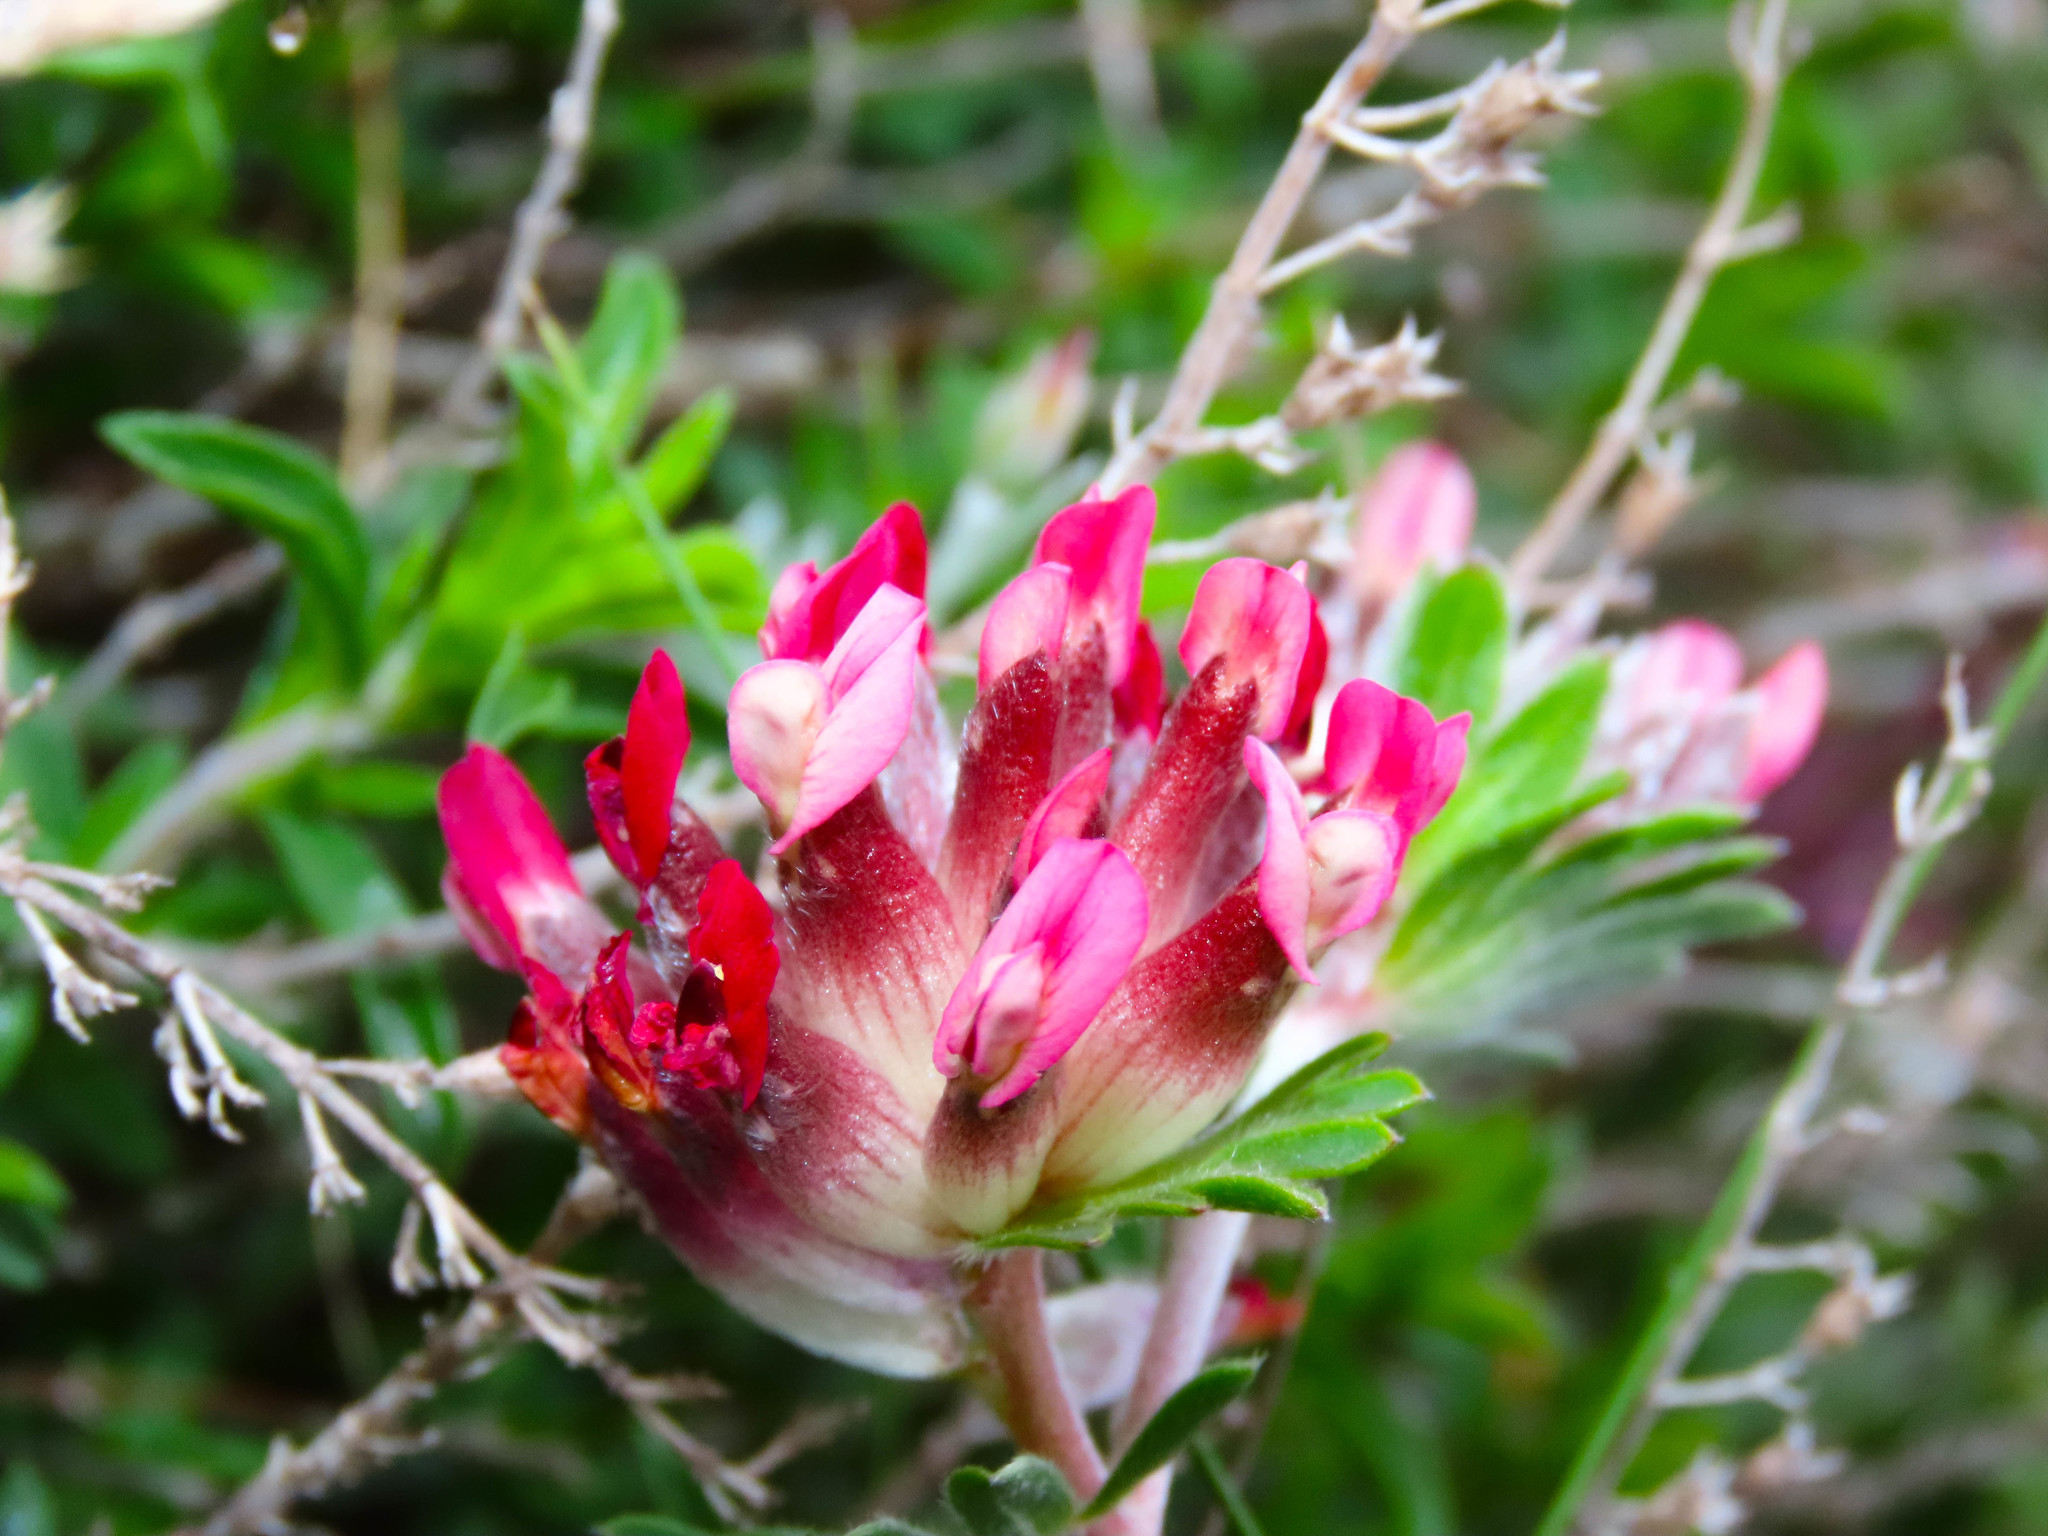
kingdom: Plantae
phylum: Tracheophyta
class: Magnoliopsida
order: Fabales
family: Fabaceae
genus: Anthyllis
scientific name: Anthyllis vulneraria
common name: Kidney vetch
